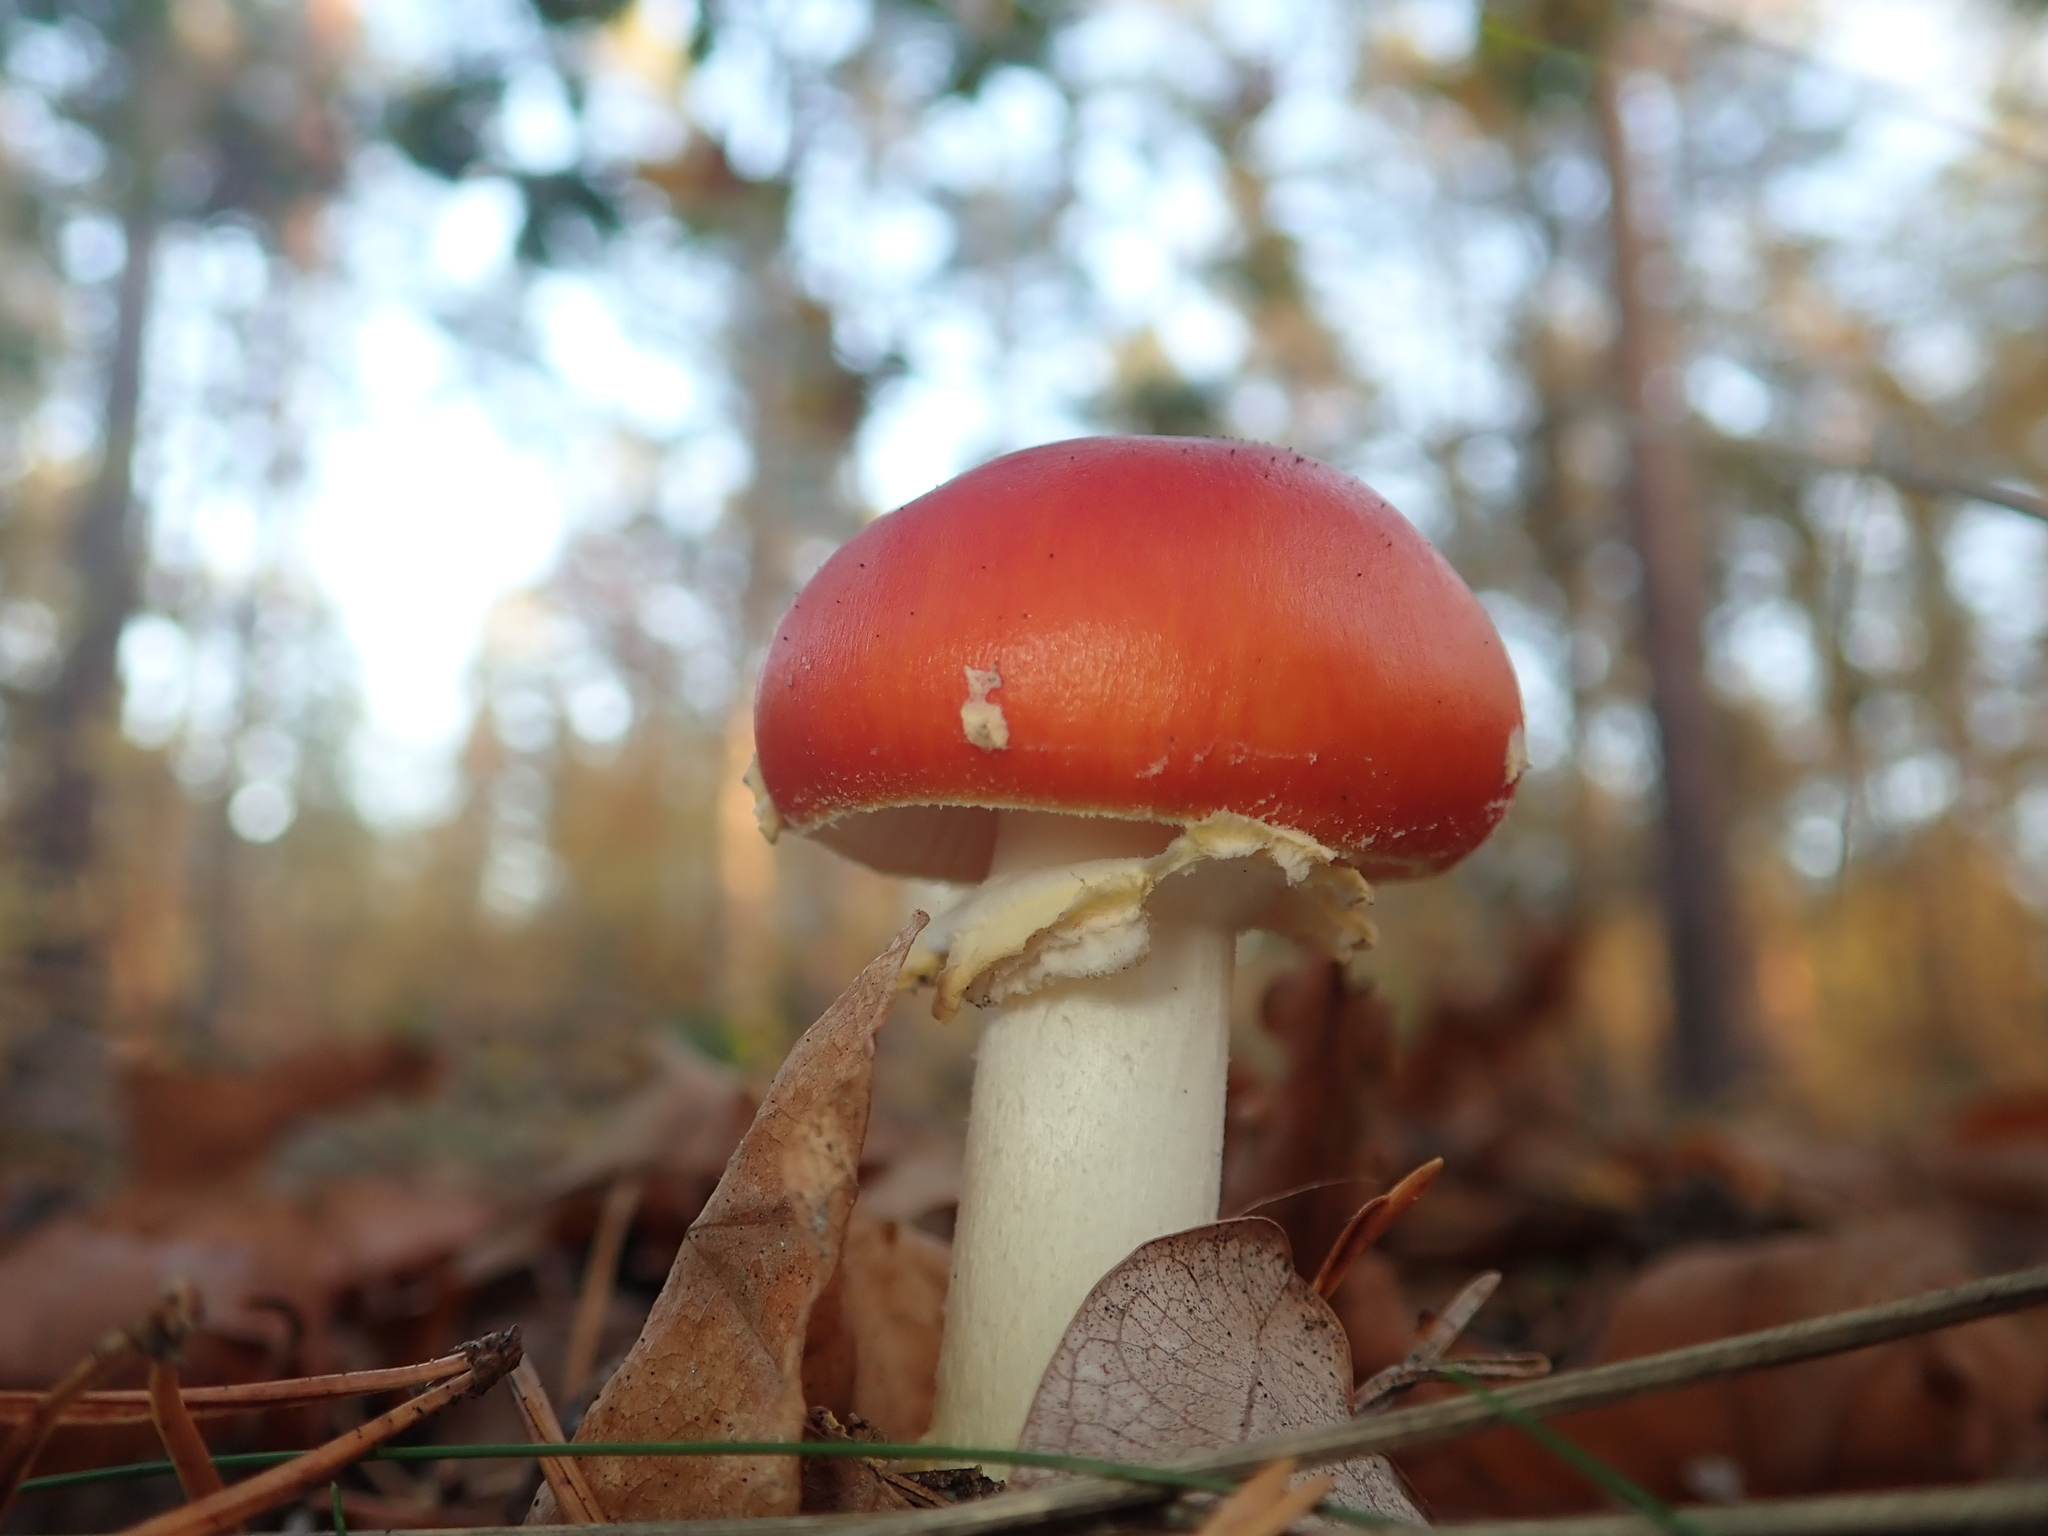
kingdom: Fungi
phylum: Basidiomycota
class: Agaricomycetes
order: Agaricales
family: Amanitaceae
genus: Amanita
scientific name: Amanita muscaria
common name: Fly agaric
